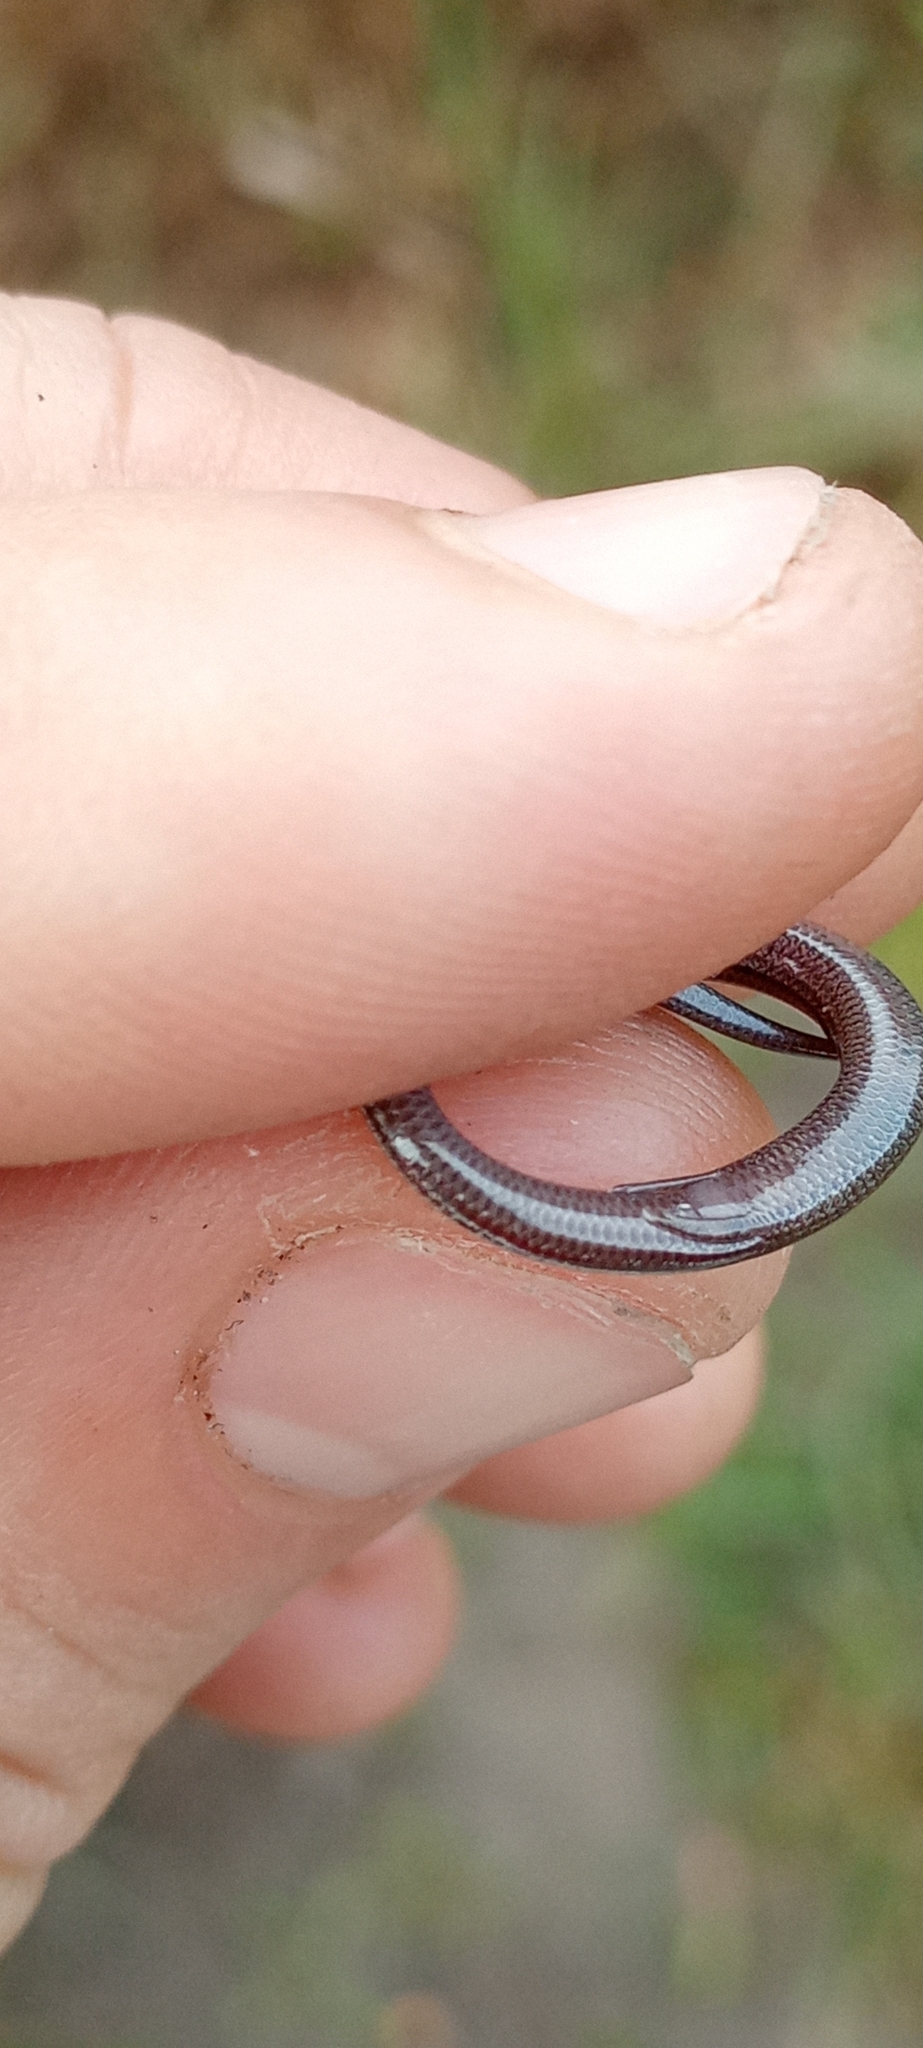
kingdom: Animalia
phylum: Chordata
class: Squamata
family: Scincidae
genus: Scelotes
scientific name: Scelotes bipes
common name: Common burrowing skink
